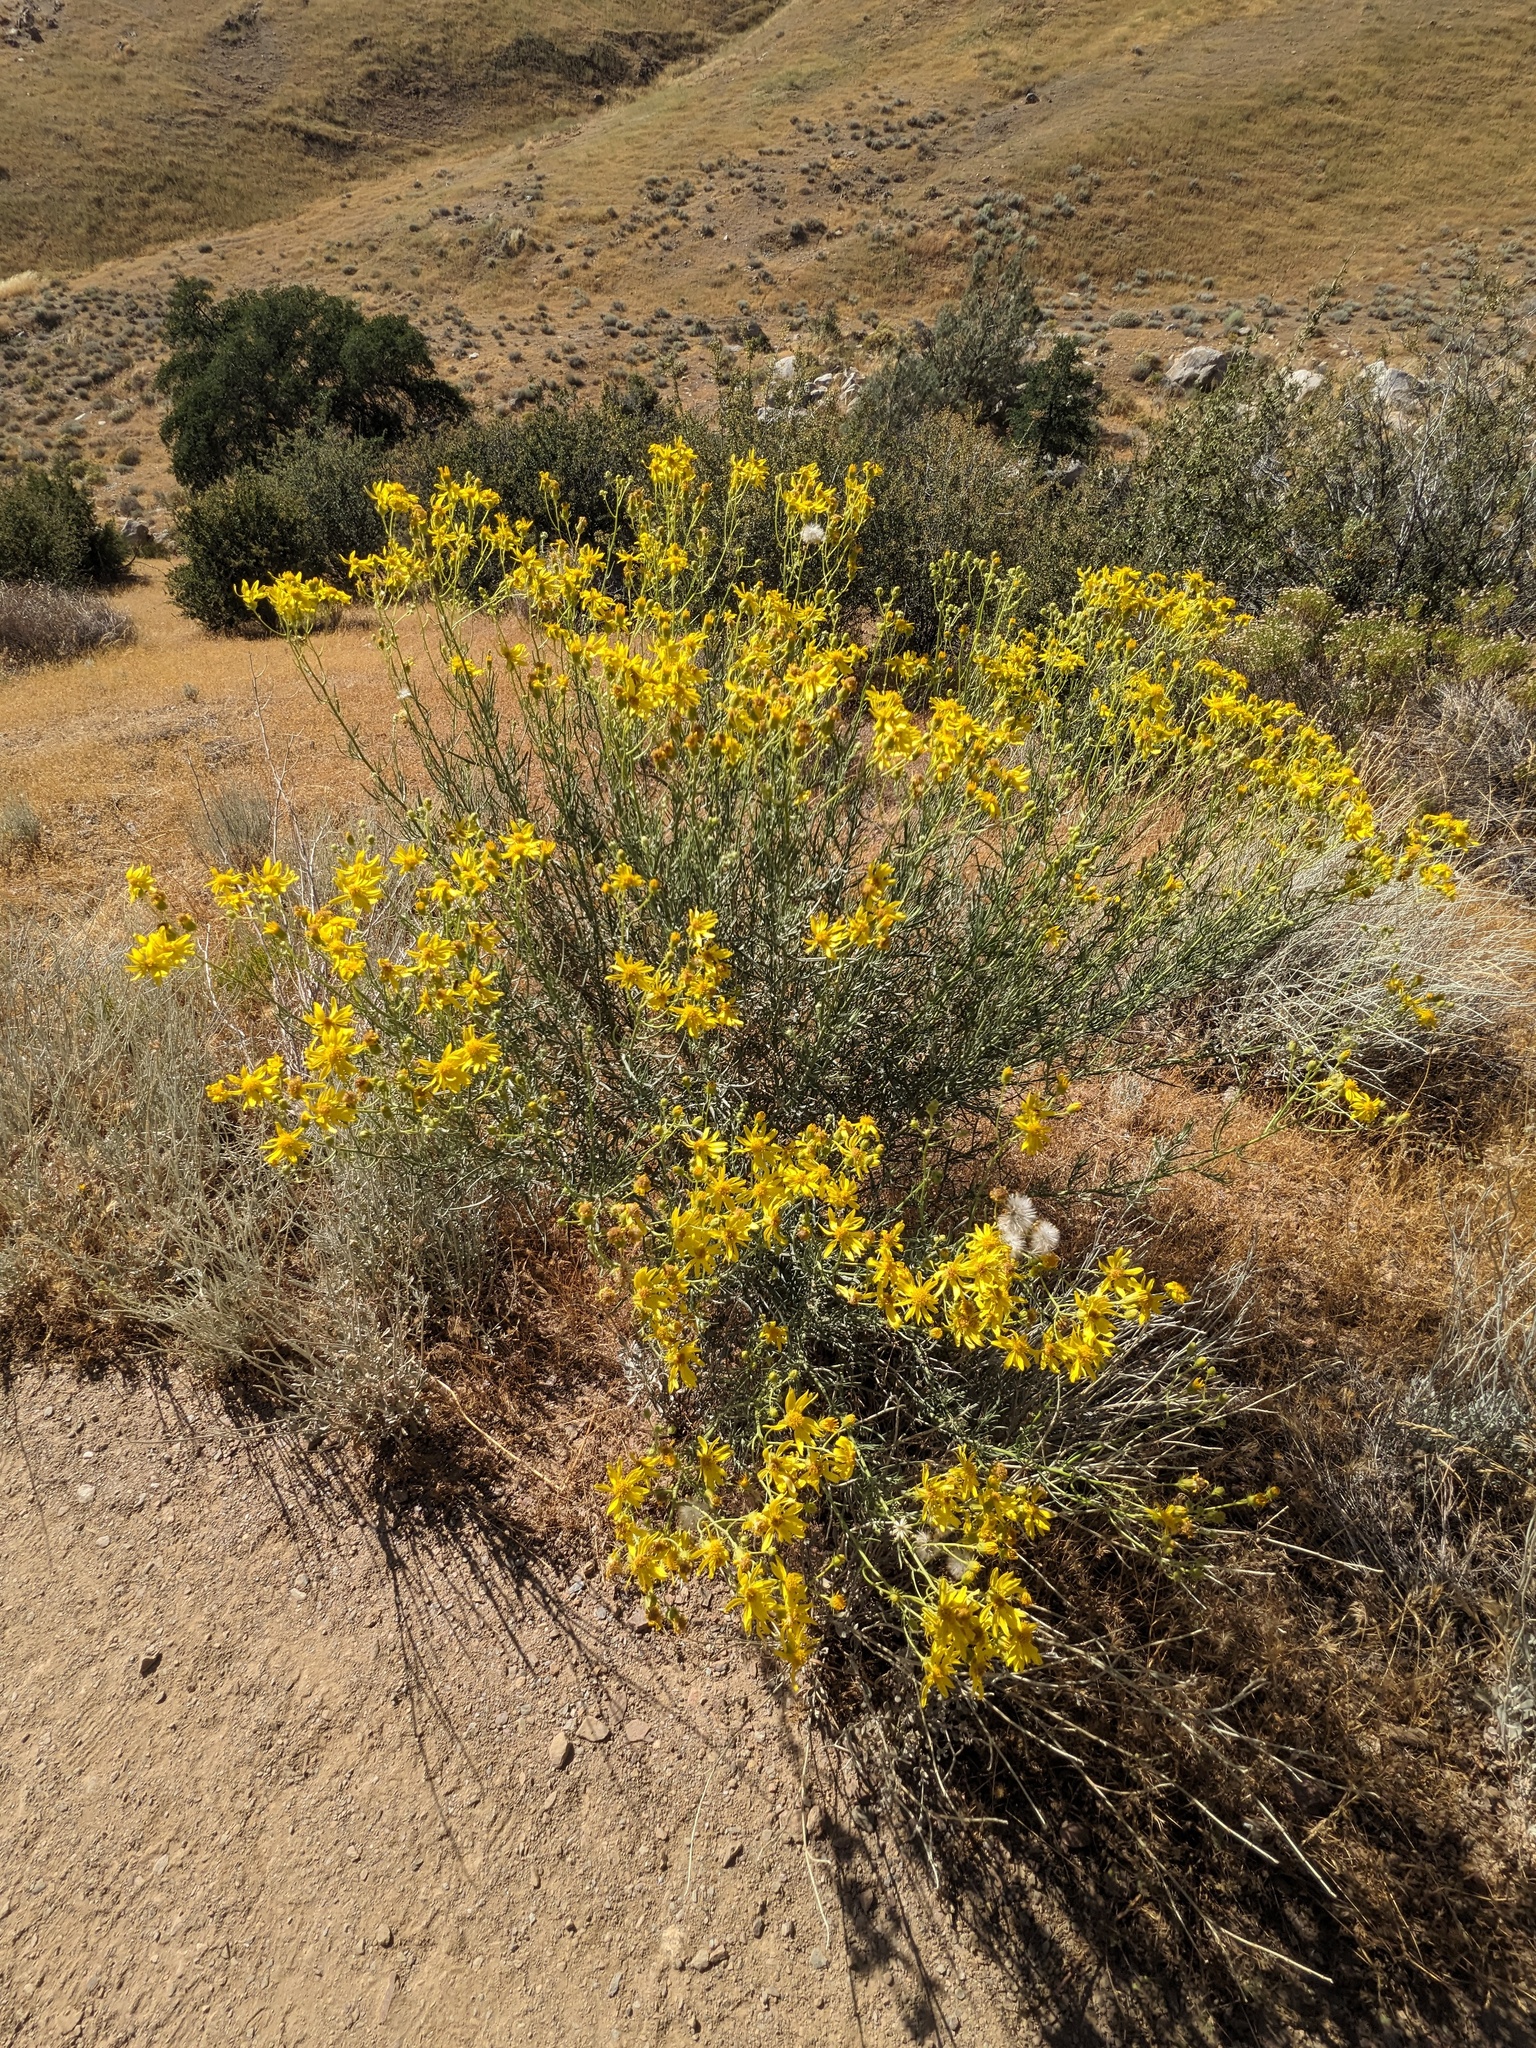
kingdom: Plantae
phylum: Tracheophyta
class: Magnoliopsida
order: Asterales
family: Asteraceae
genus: Ericameria
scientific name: Ericameria linearifolia
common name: Interior goldenbush
